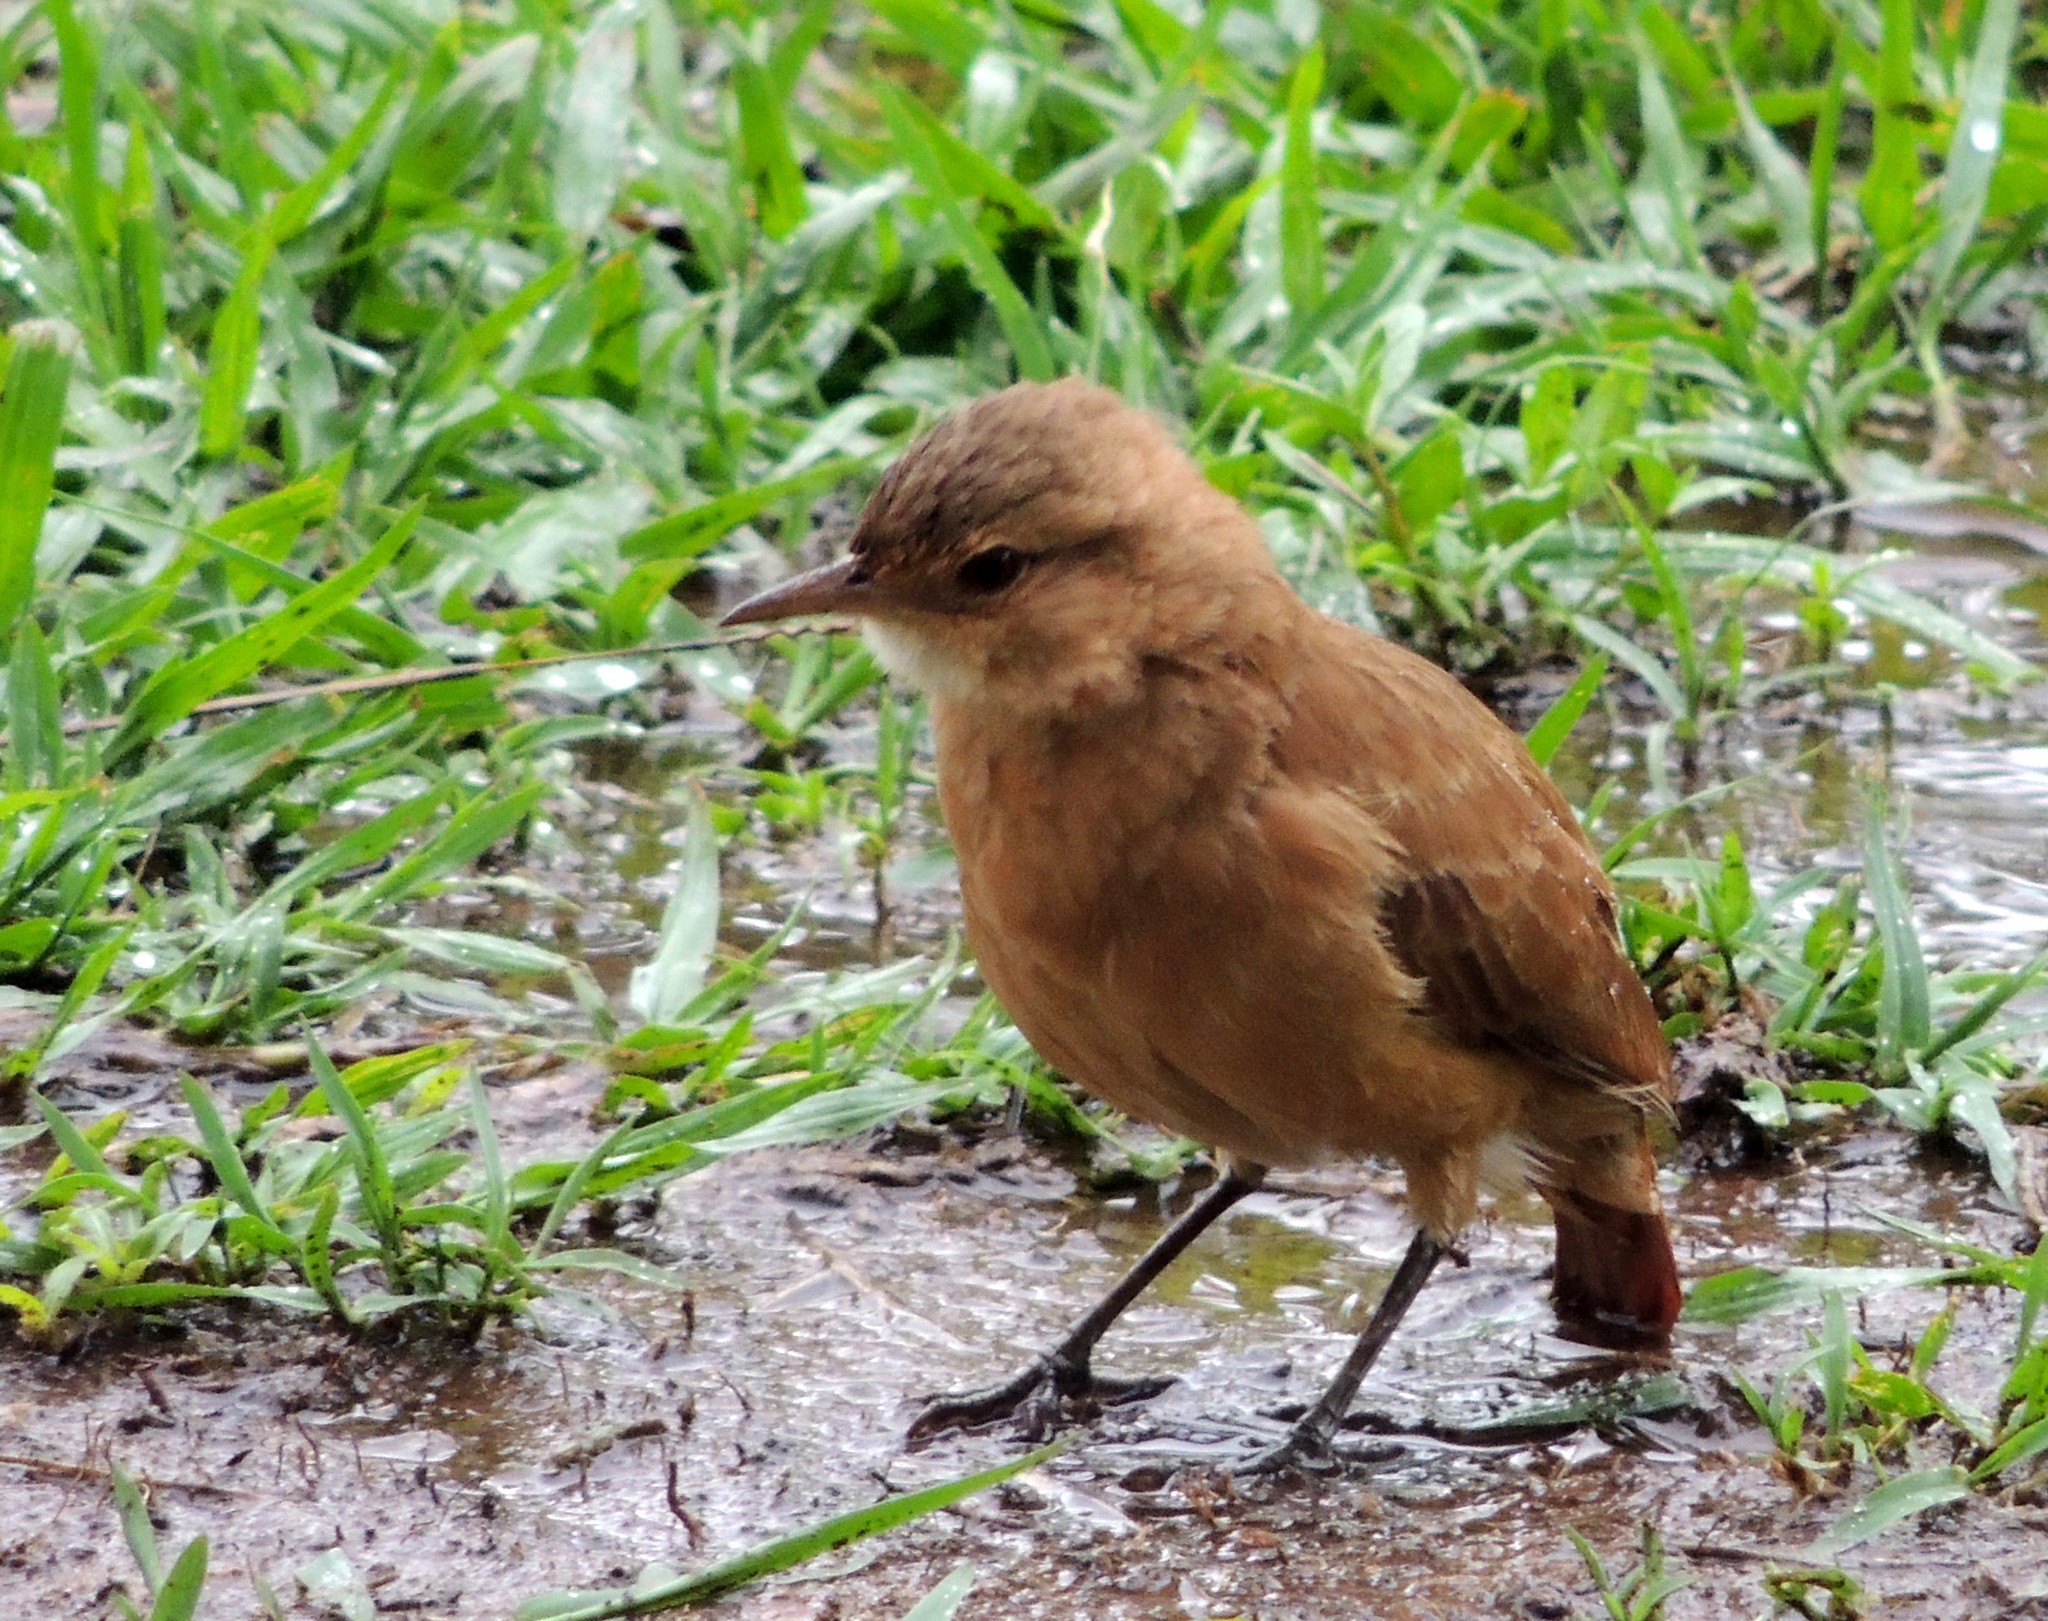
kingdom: Animalia
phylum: Chordata
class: Aves
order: Passeriformes
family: Furnariidae
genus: Furnarius
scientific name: Furnarius rufus
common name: Rufous hornero
